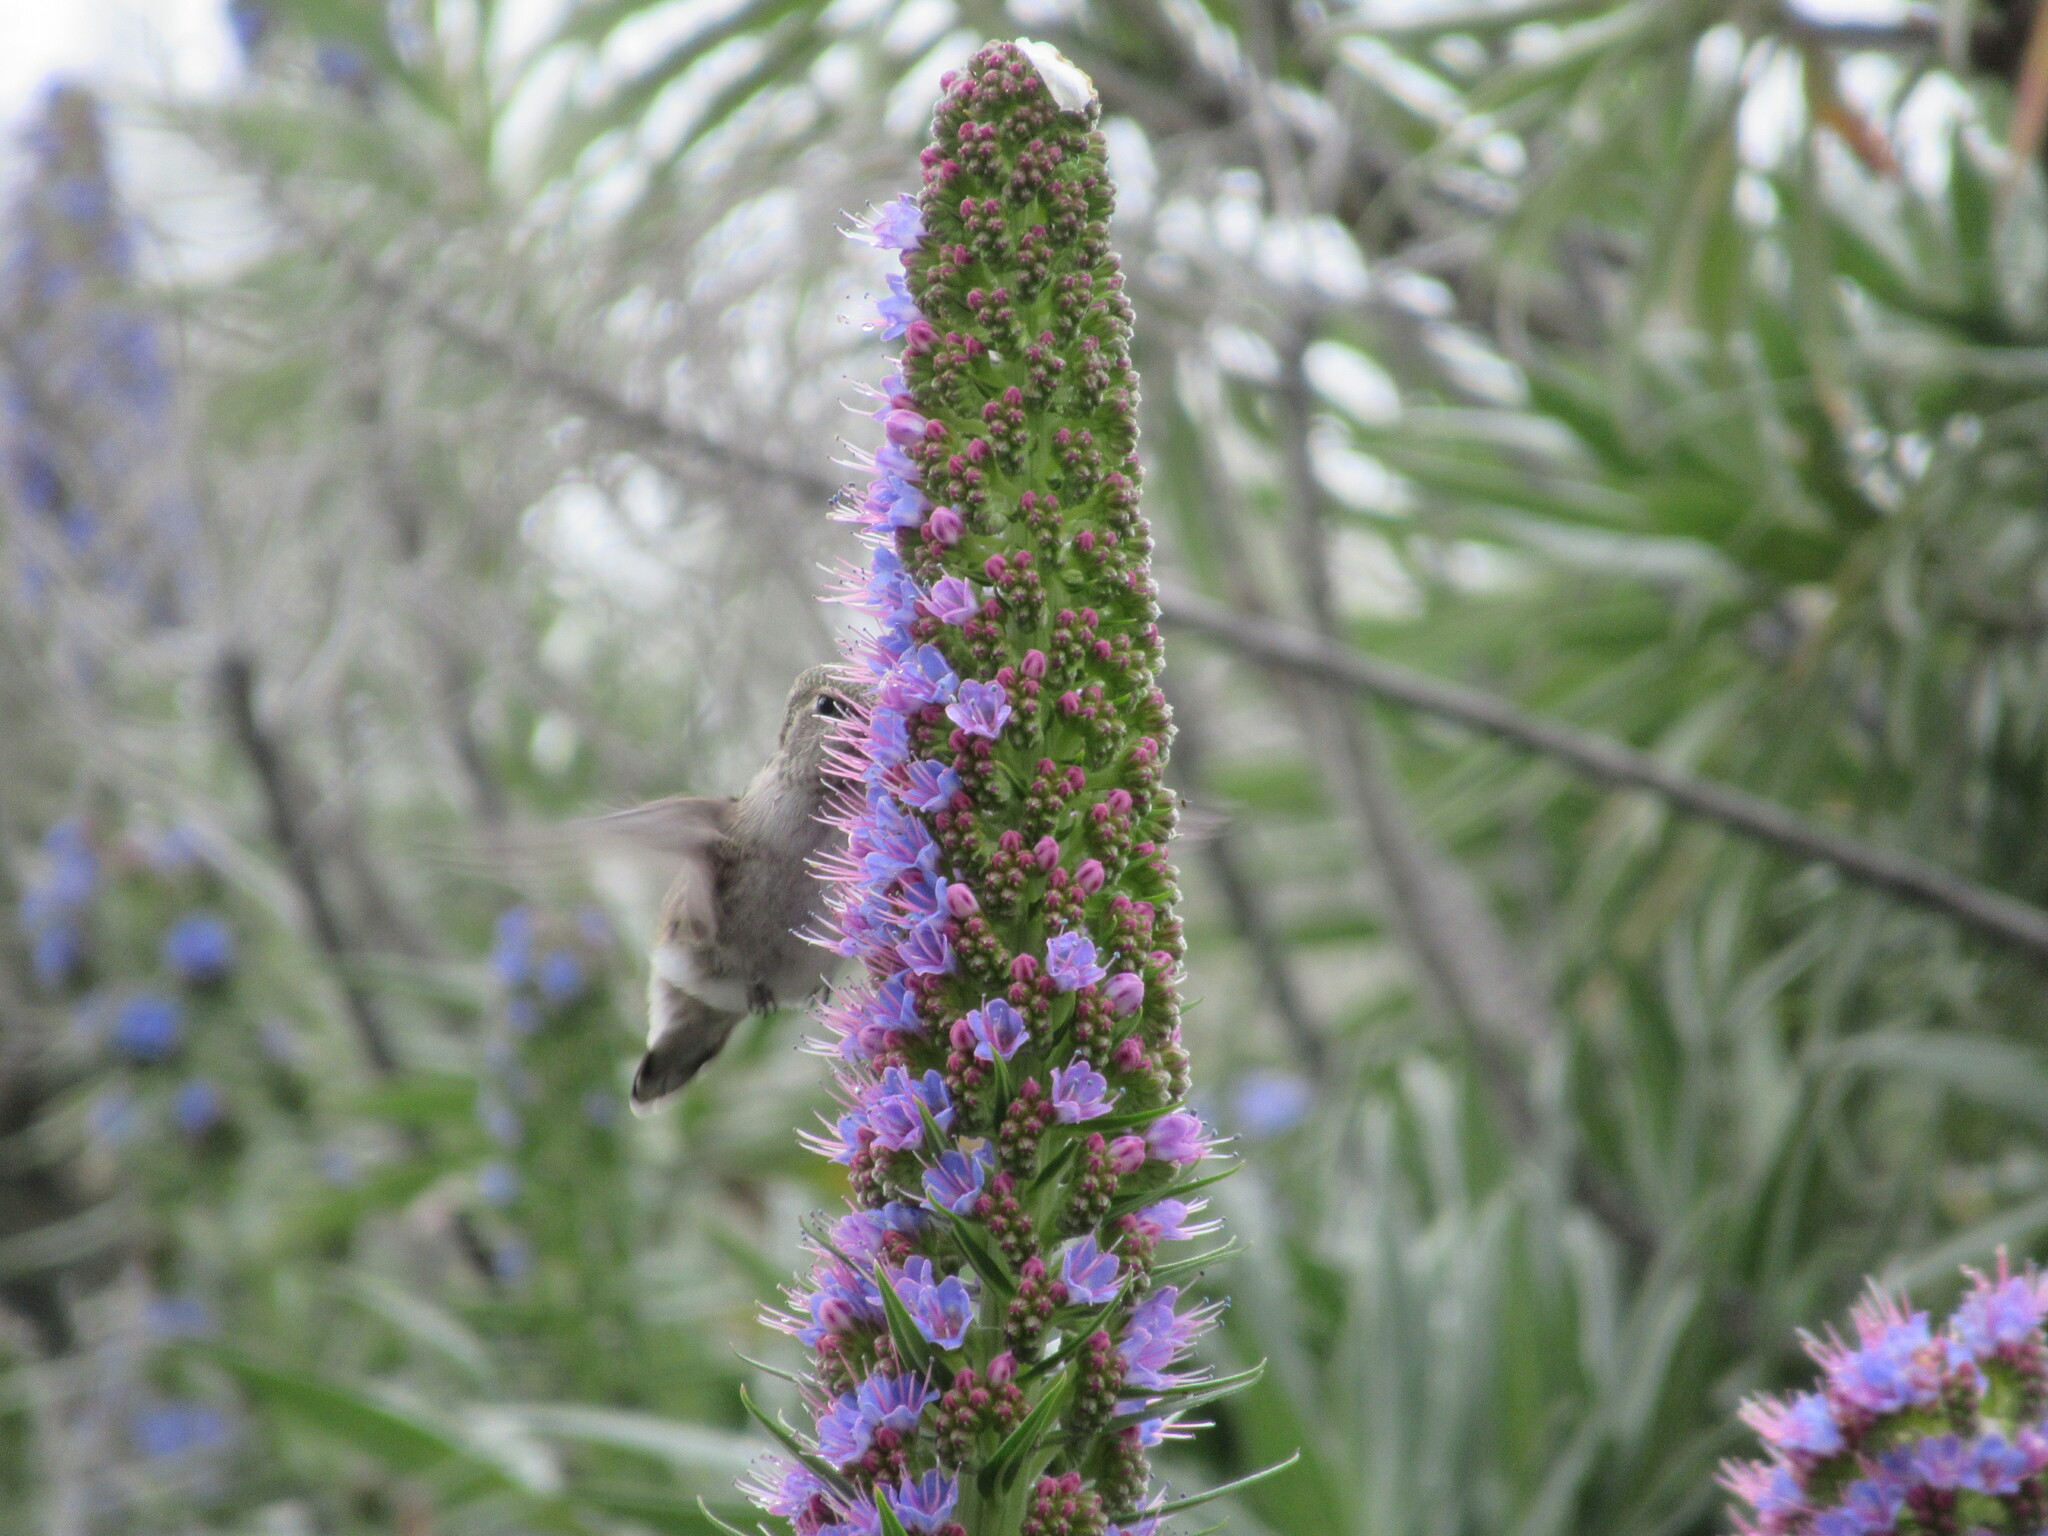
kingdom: Animalia
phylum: Chordata
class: Aves
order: Apodiformes
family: Trochilidae
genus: Calypte
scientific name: Calypte anna
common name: Anna's hummingbird
